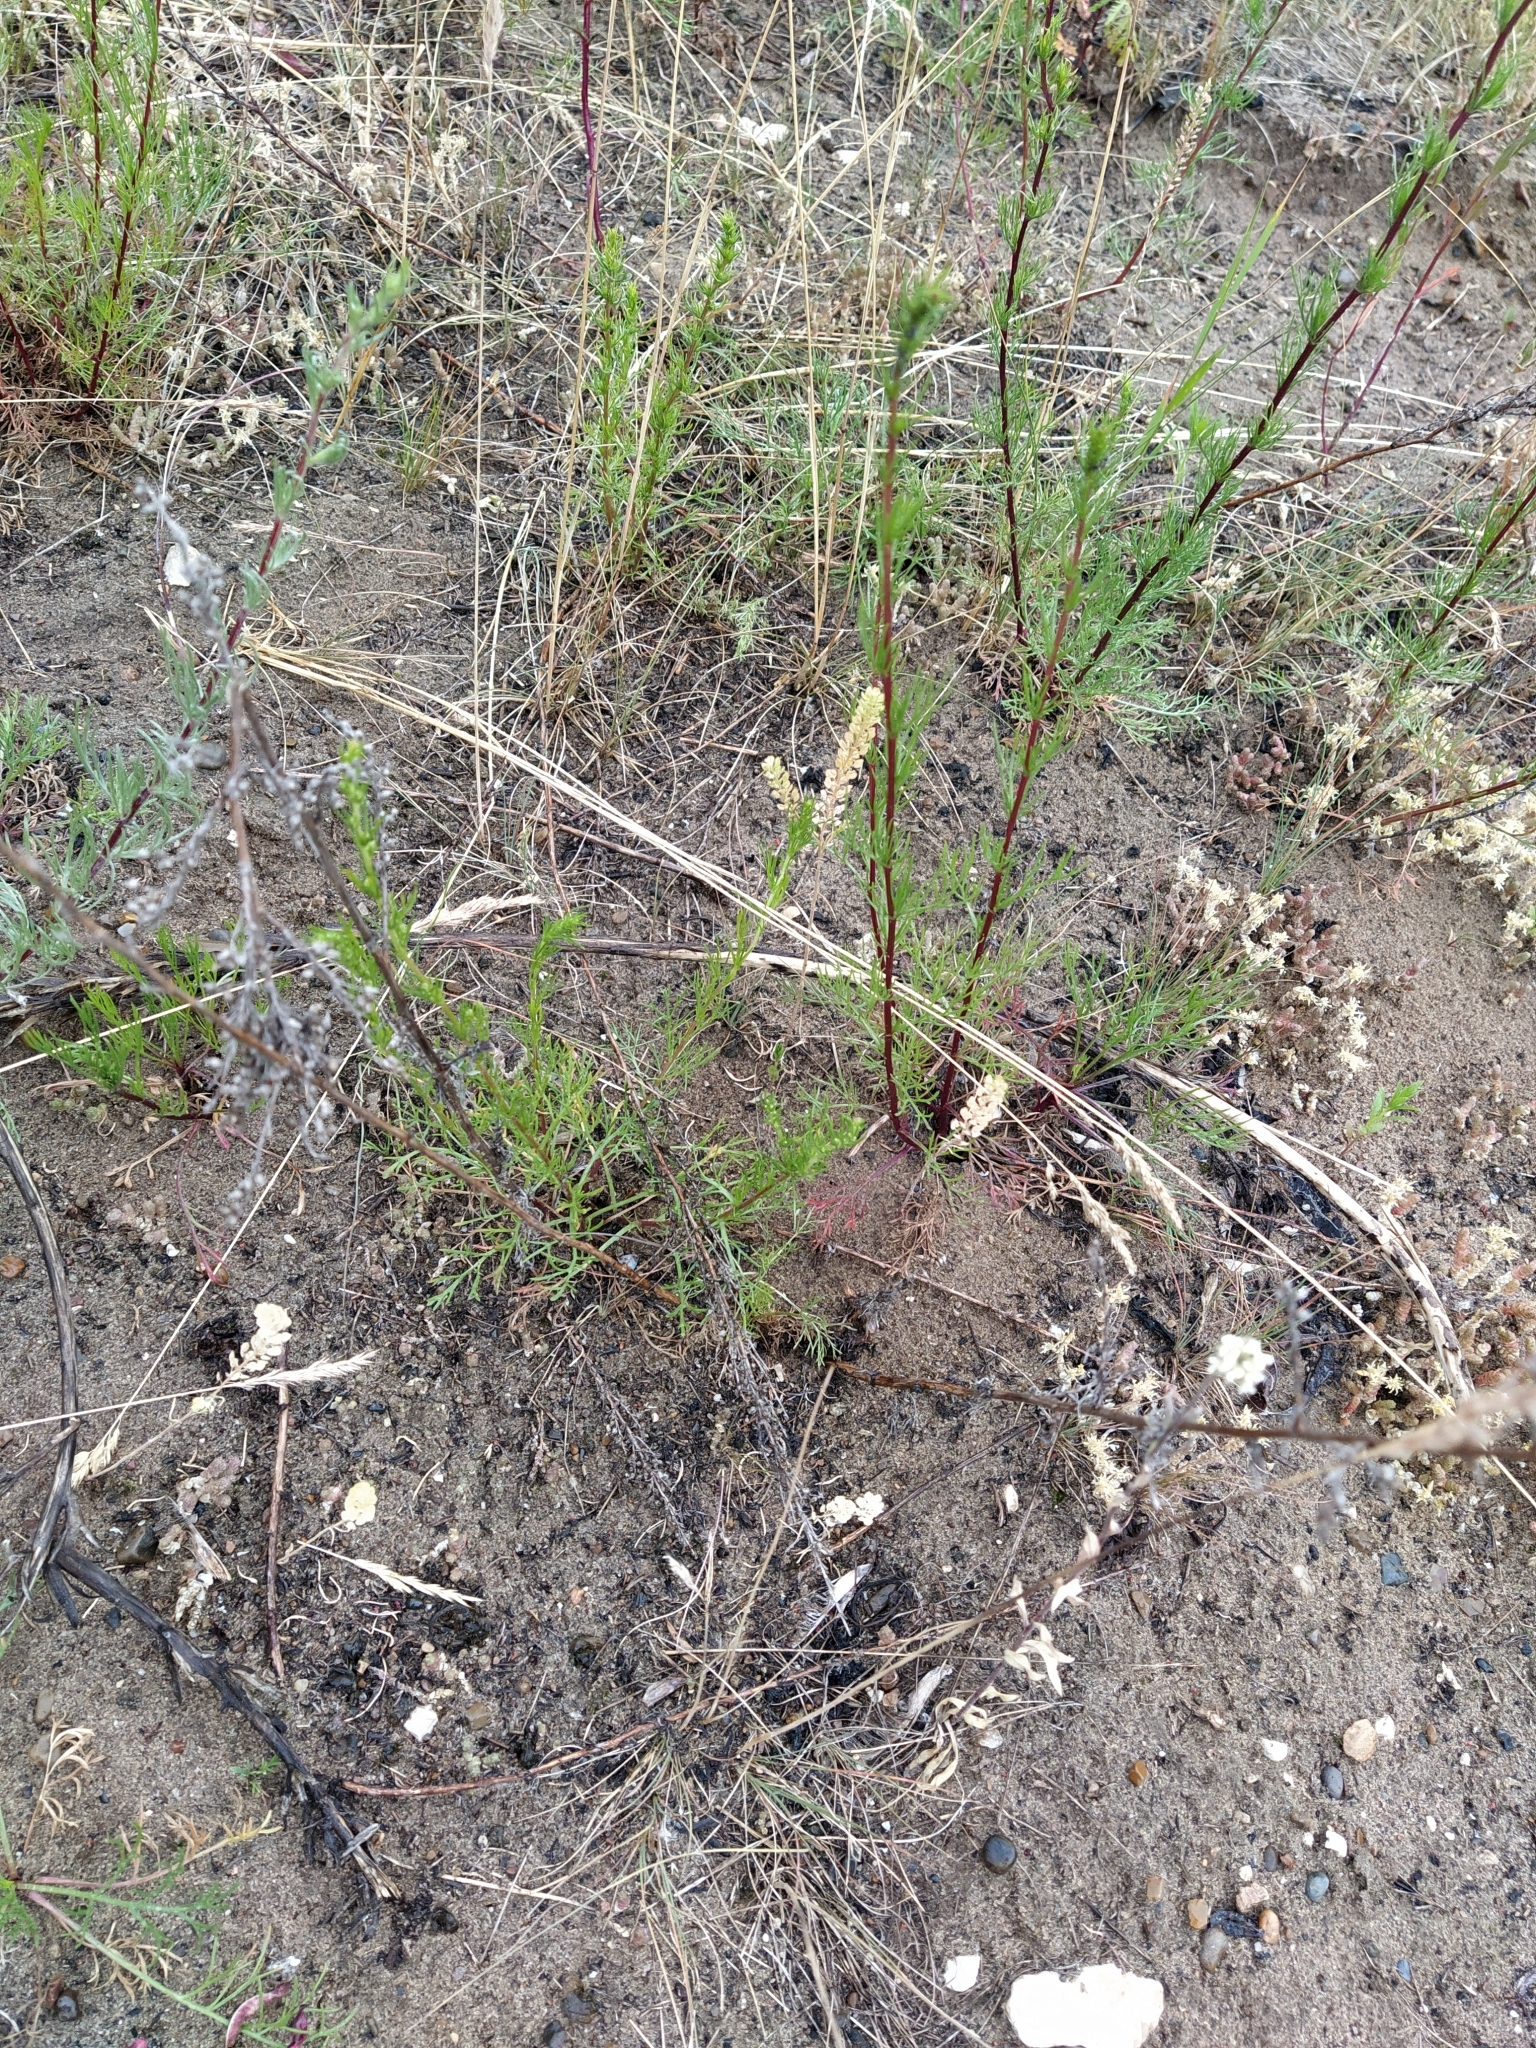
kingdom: Plantae
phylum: Tracheophyta
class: Magnoliopsida
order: Asterales
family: Asteraceae
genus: Artemisia
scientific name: Artemisia campestris
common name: Field wormwood
